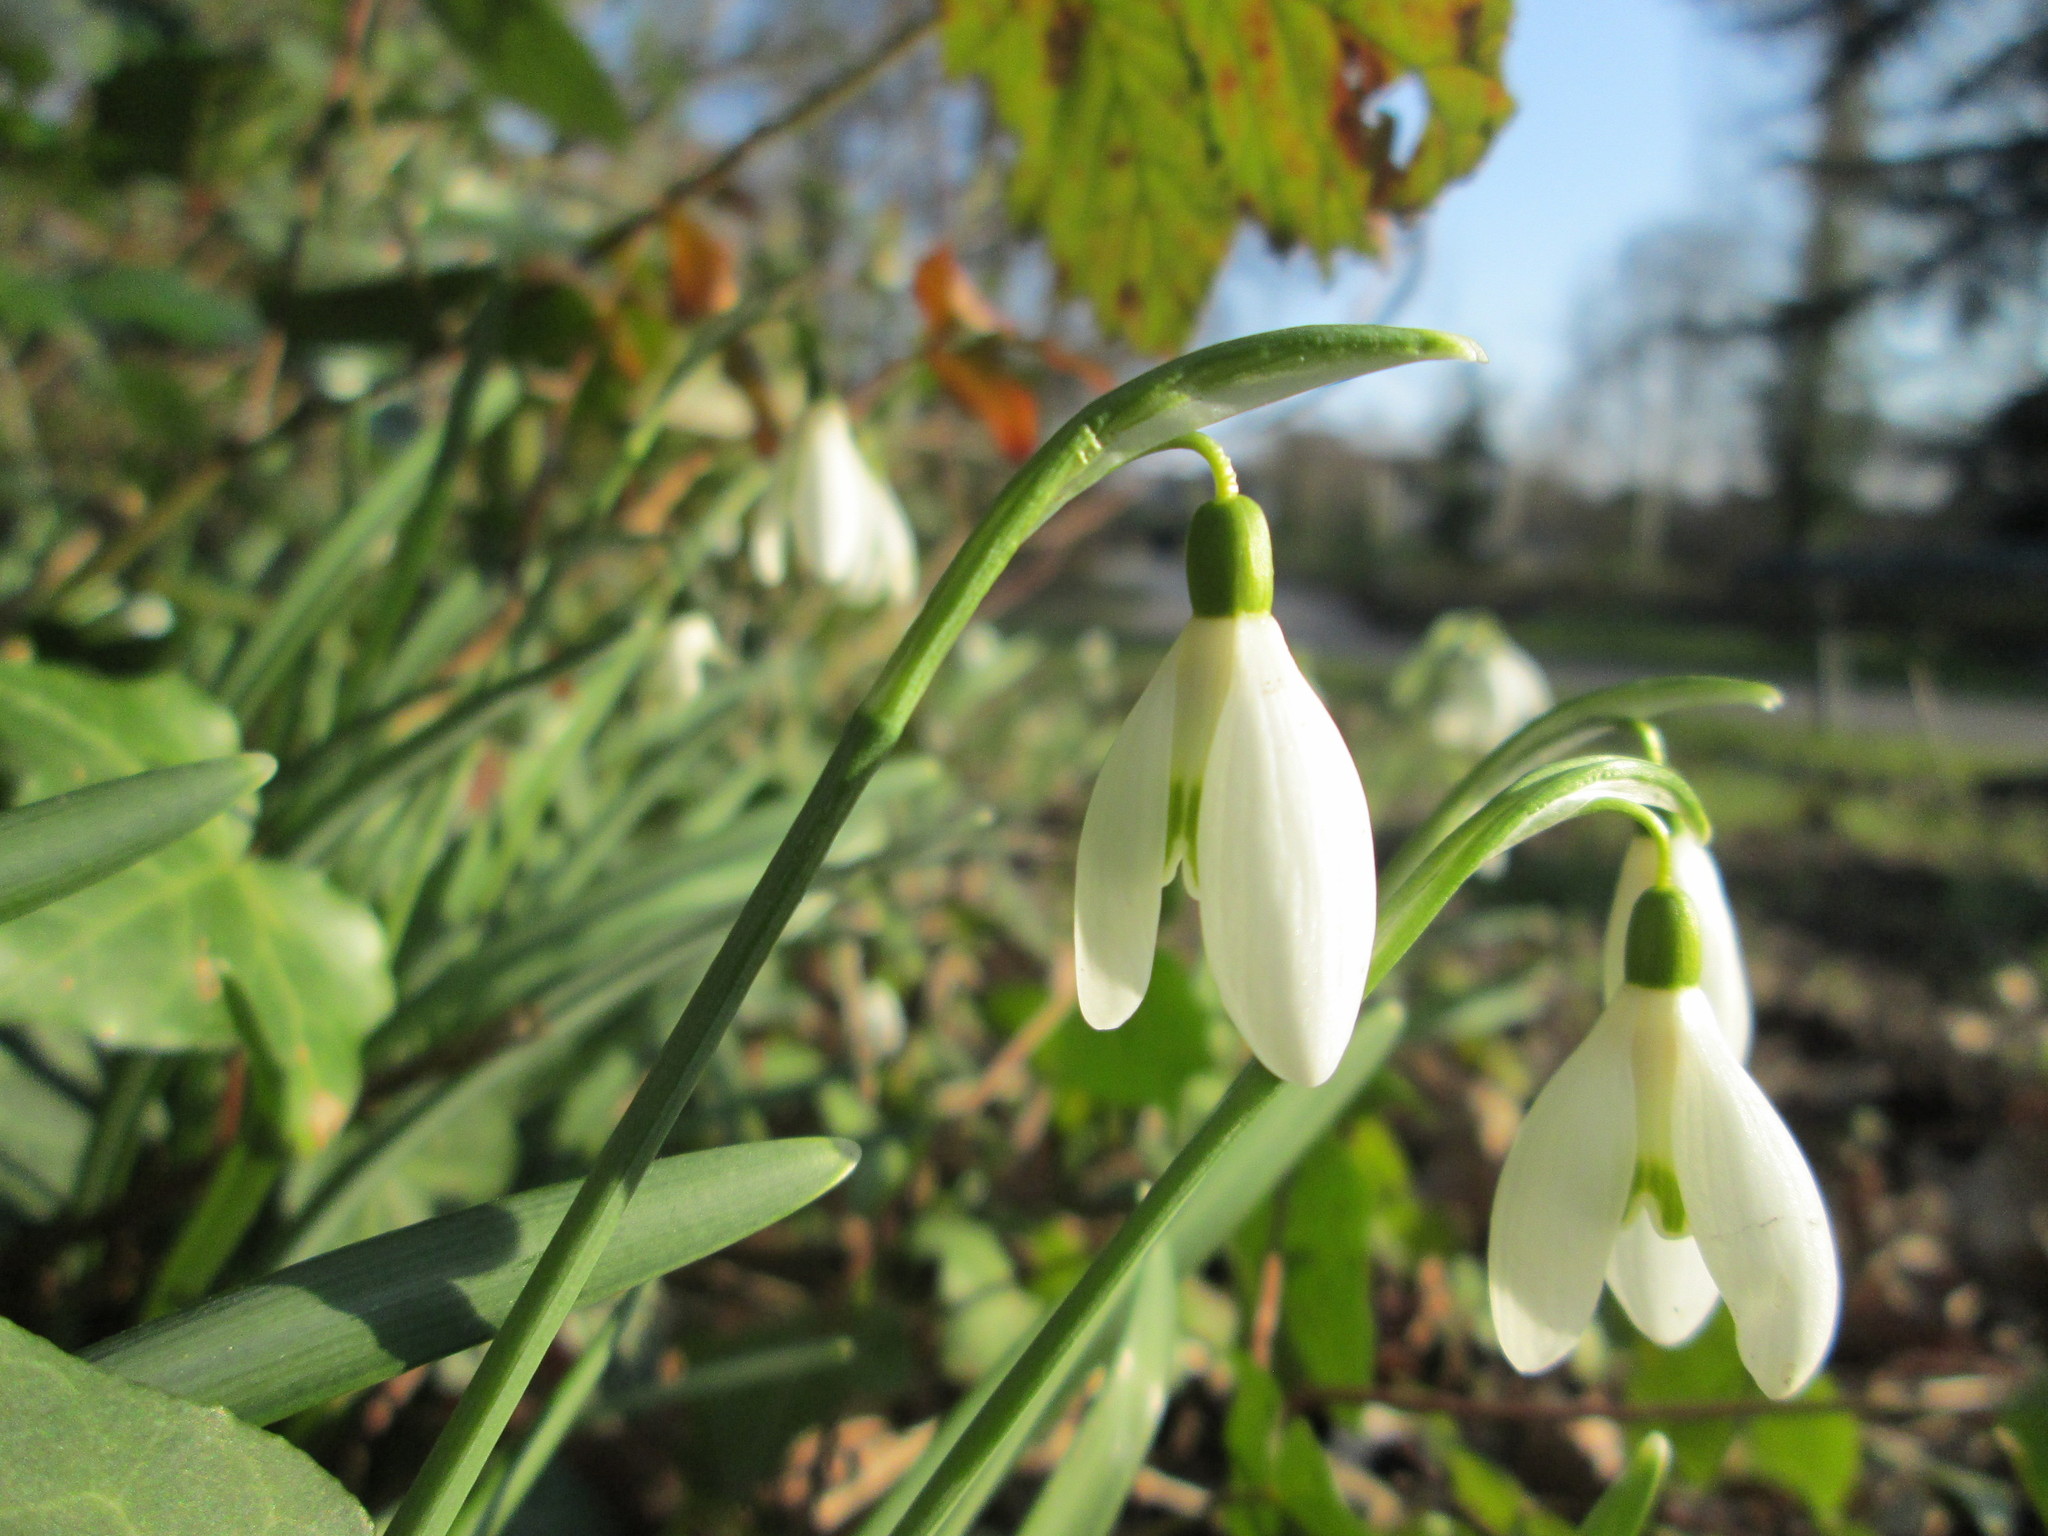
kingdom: Plantae
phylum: Tracheophyta
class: Liliopsida
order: Asparagales
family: Amaryllidaceae
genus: Galanthus
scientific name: Galanthus nivalis
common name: Snowdrop
